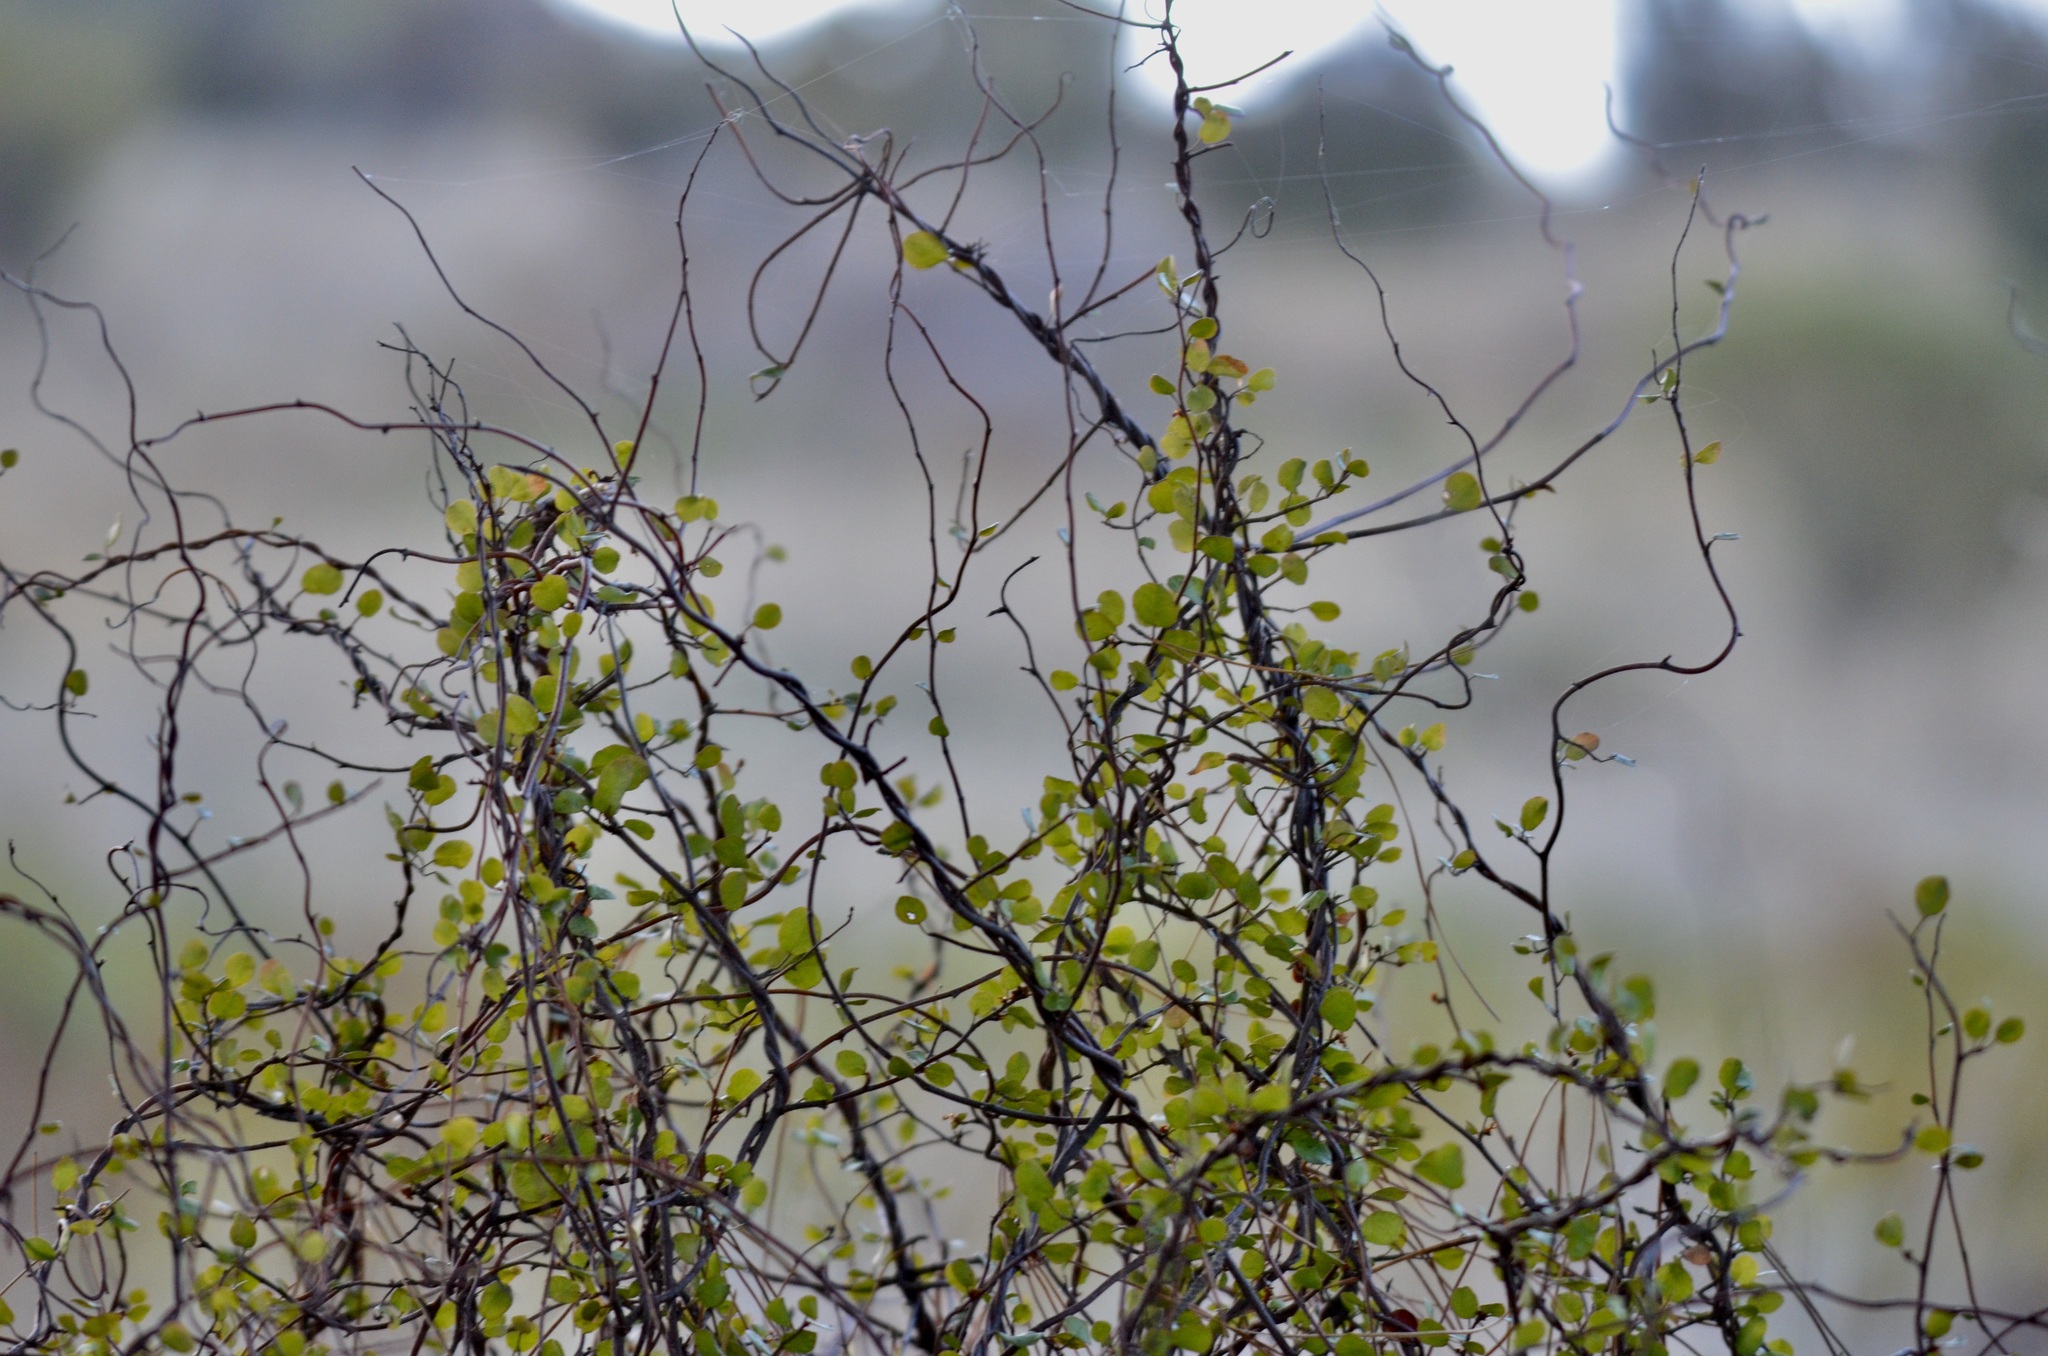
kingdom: Plantae
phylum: Tracheophyta
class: Magnoliopsida
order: Caryophyllales
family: Polygonaceae
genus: Muehlenbeckia
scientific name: Muehlenbeckia complexa
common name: Wireplant
